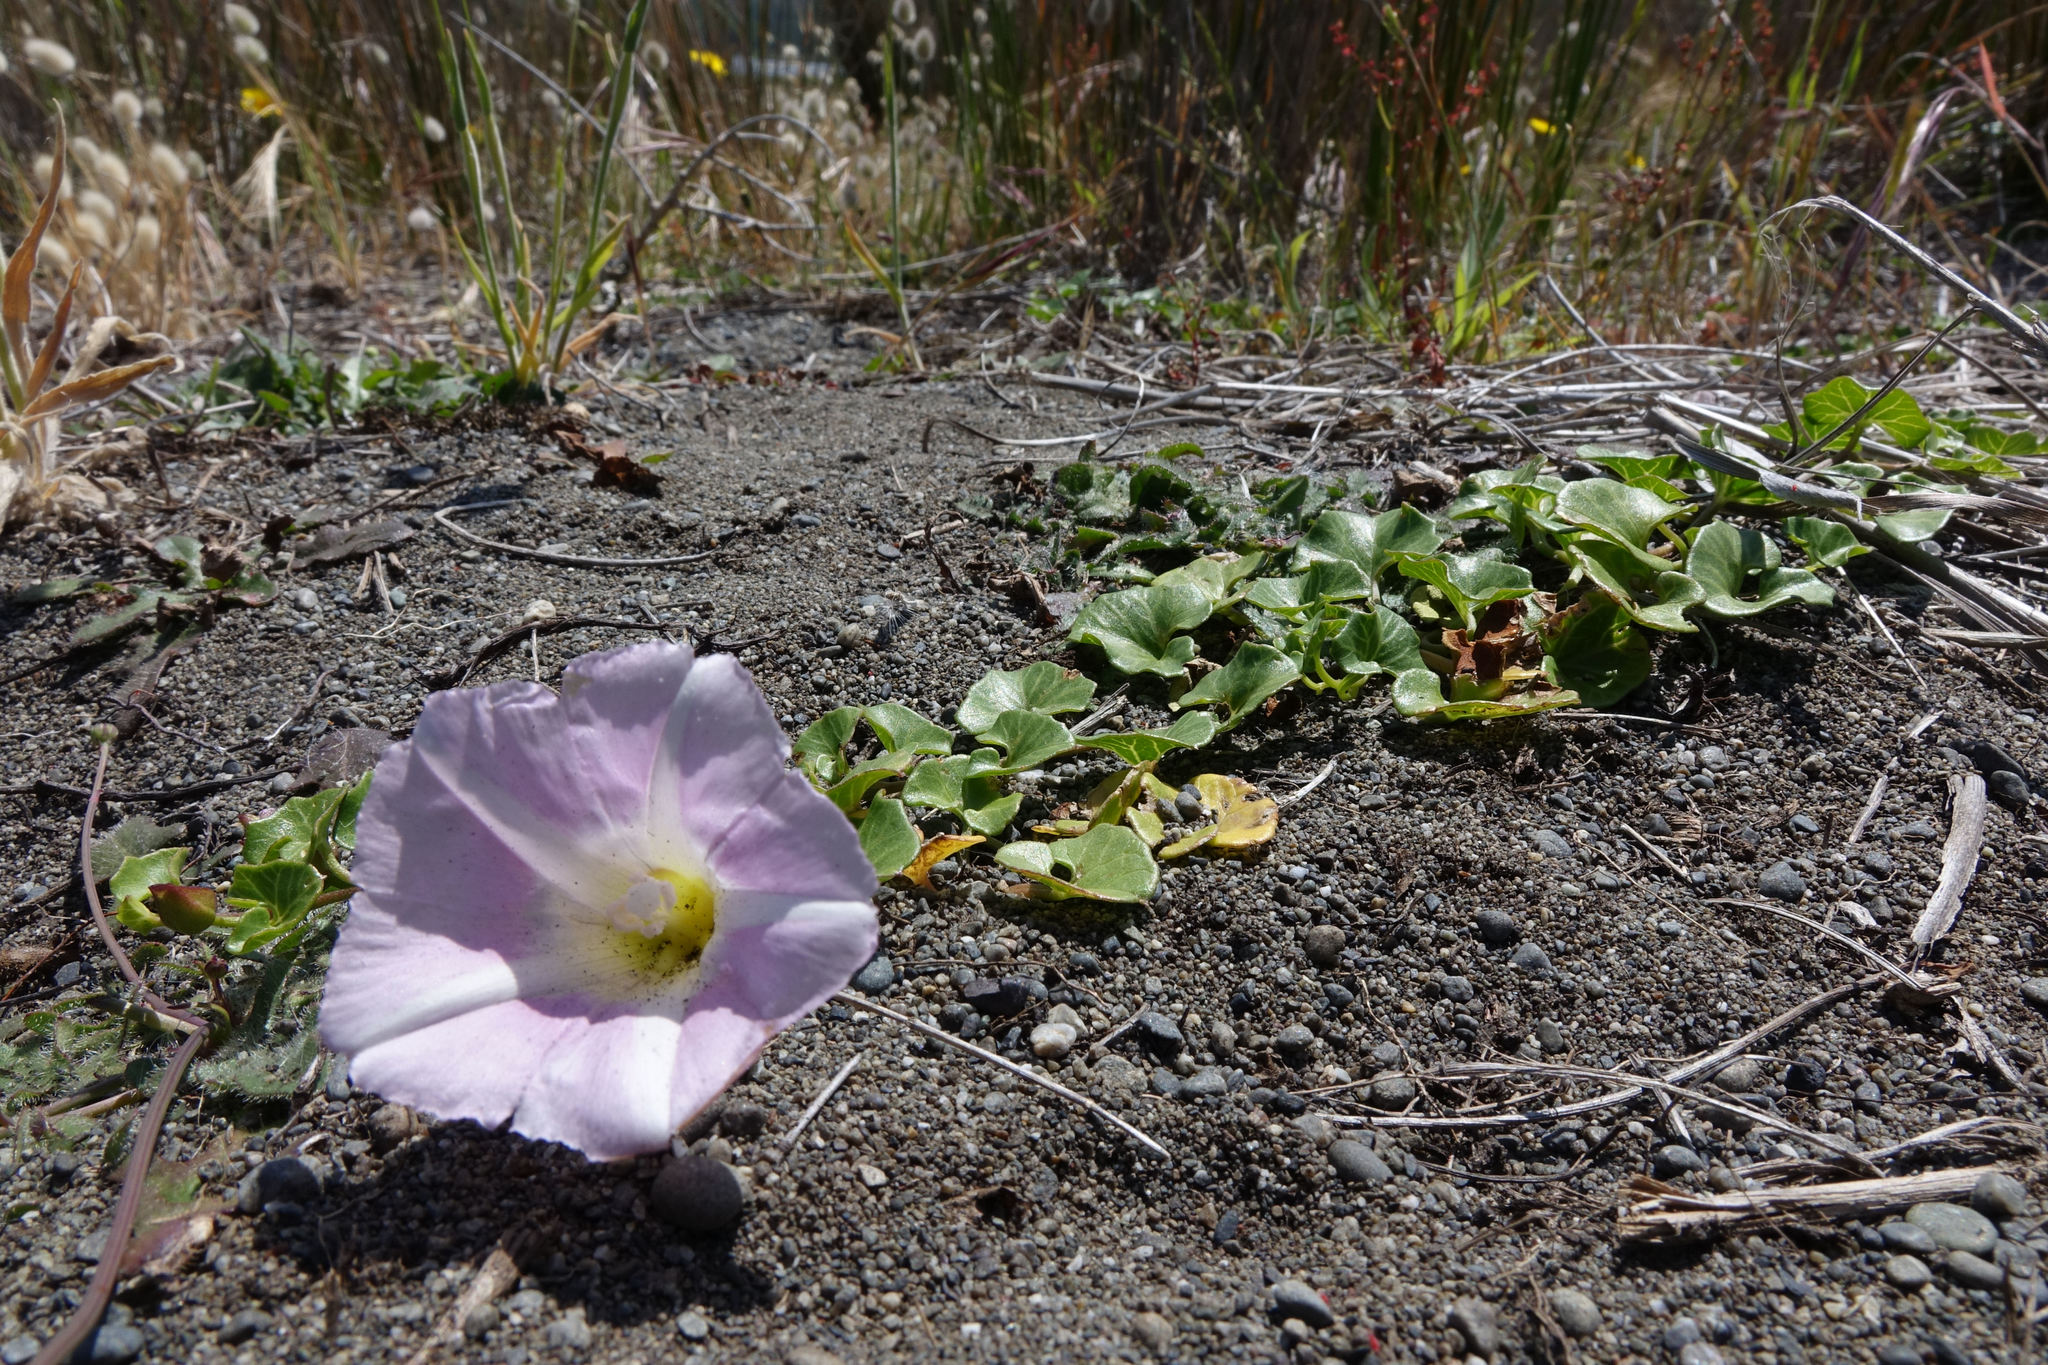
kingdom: Plantae
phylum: Tracheophyta
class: Magnoliopsida
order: Solanales
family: Convolvulaceae
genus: Calystegia
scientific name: Calystegia soldanella
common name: Sea bindweed
